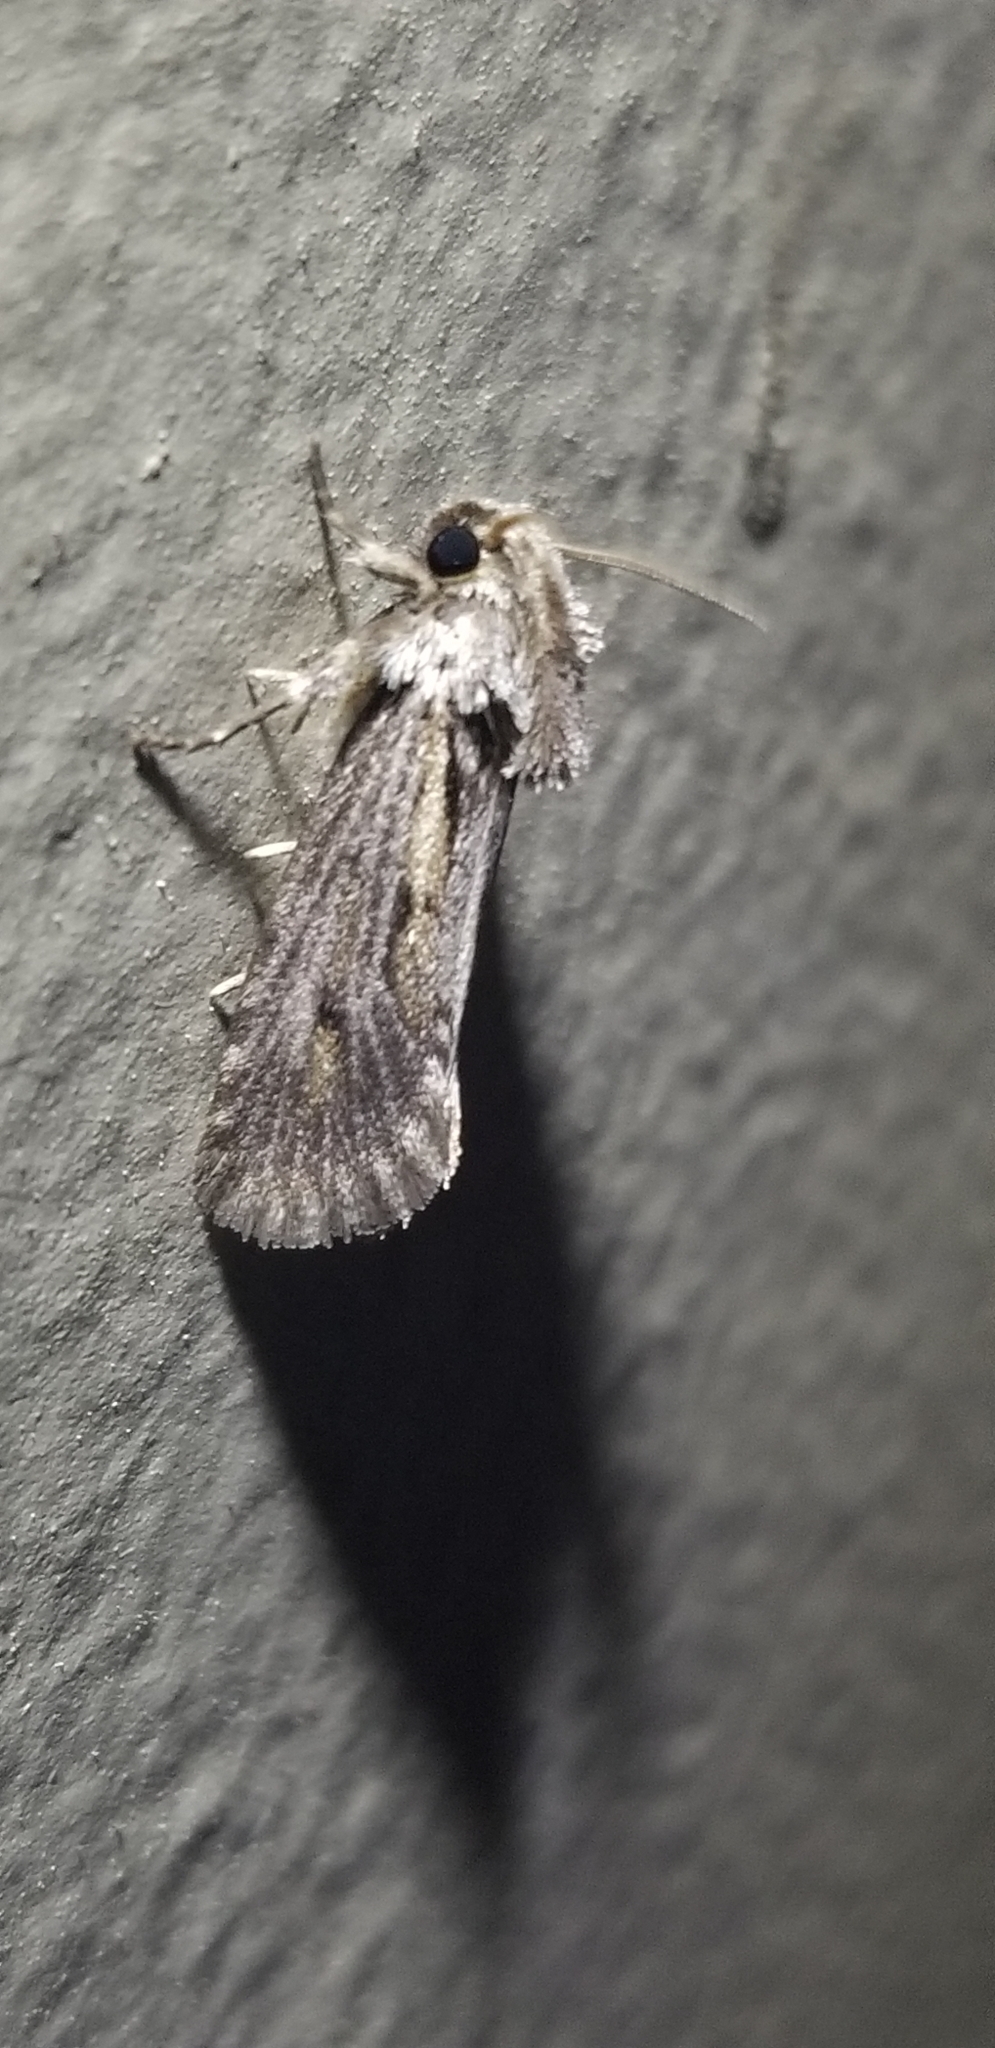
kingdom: Animalia
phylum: Arthropoda
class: Insecta
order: Lepidoptera
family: Tineidae
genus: Acrolophus
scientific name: Acrolophus popeanella
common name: Clemens' grass tubeworm moth
